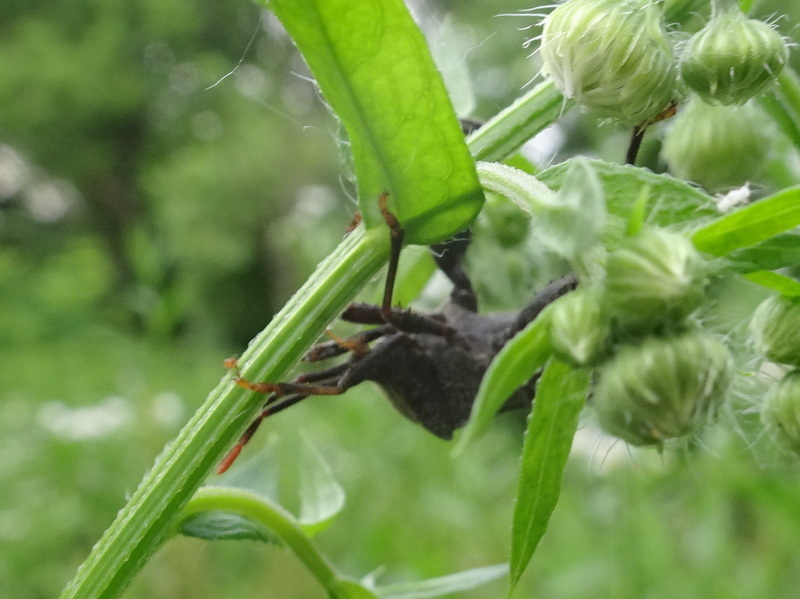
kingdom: Animalia
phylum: Arthropoda
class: Insecta
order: Hemiptera
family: Coreidae
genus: Piezogaster
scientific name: Piezogaster calcarator
